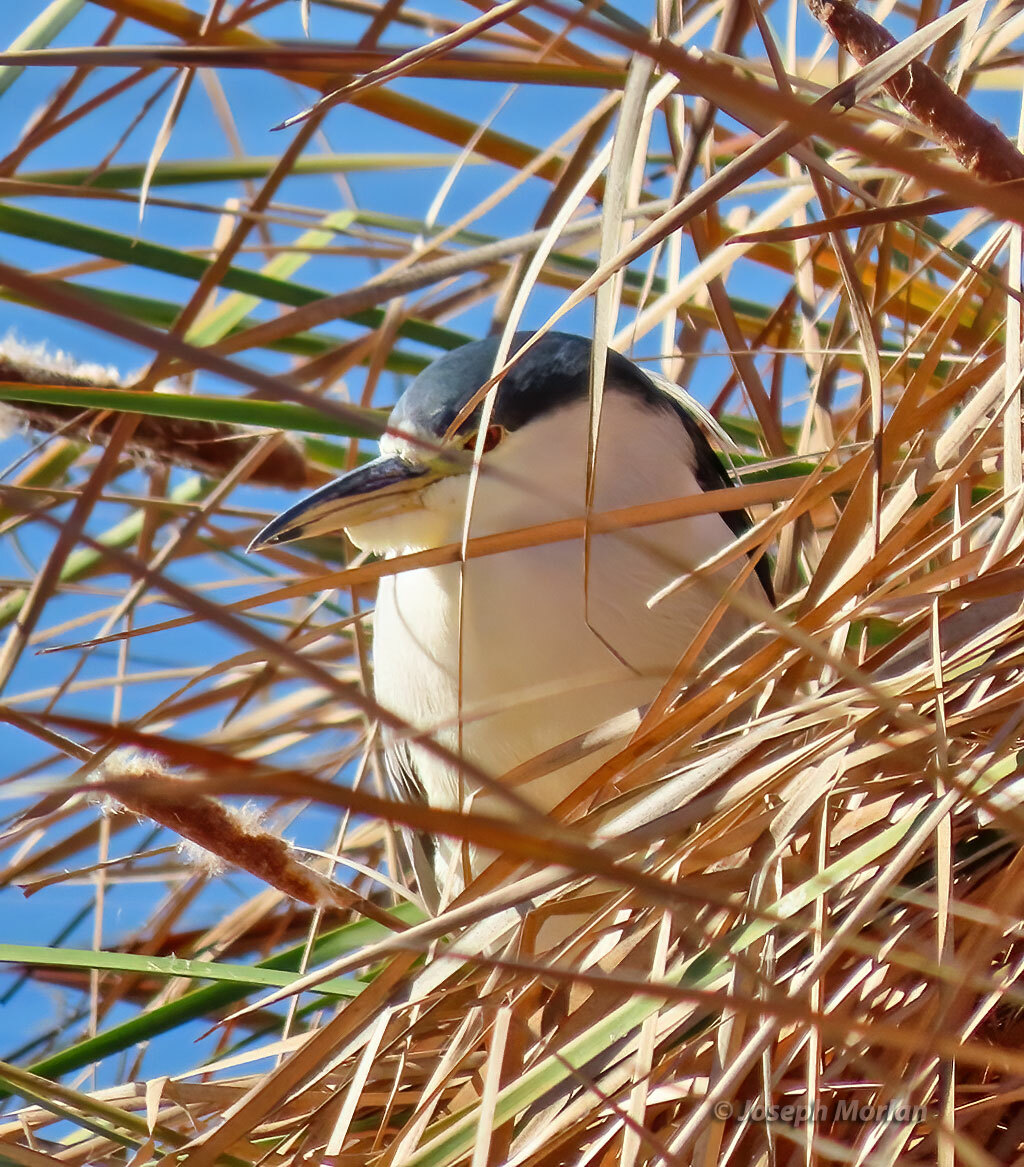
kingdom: Animalia
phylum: Chordata
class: Aves
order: Pelecaniformes
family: Ardeidae
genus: Nycticorax
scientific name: Nycticorax nycticorax
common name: Black-crowned night heron
